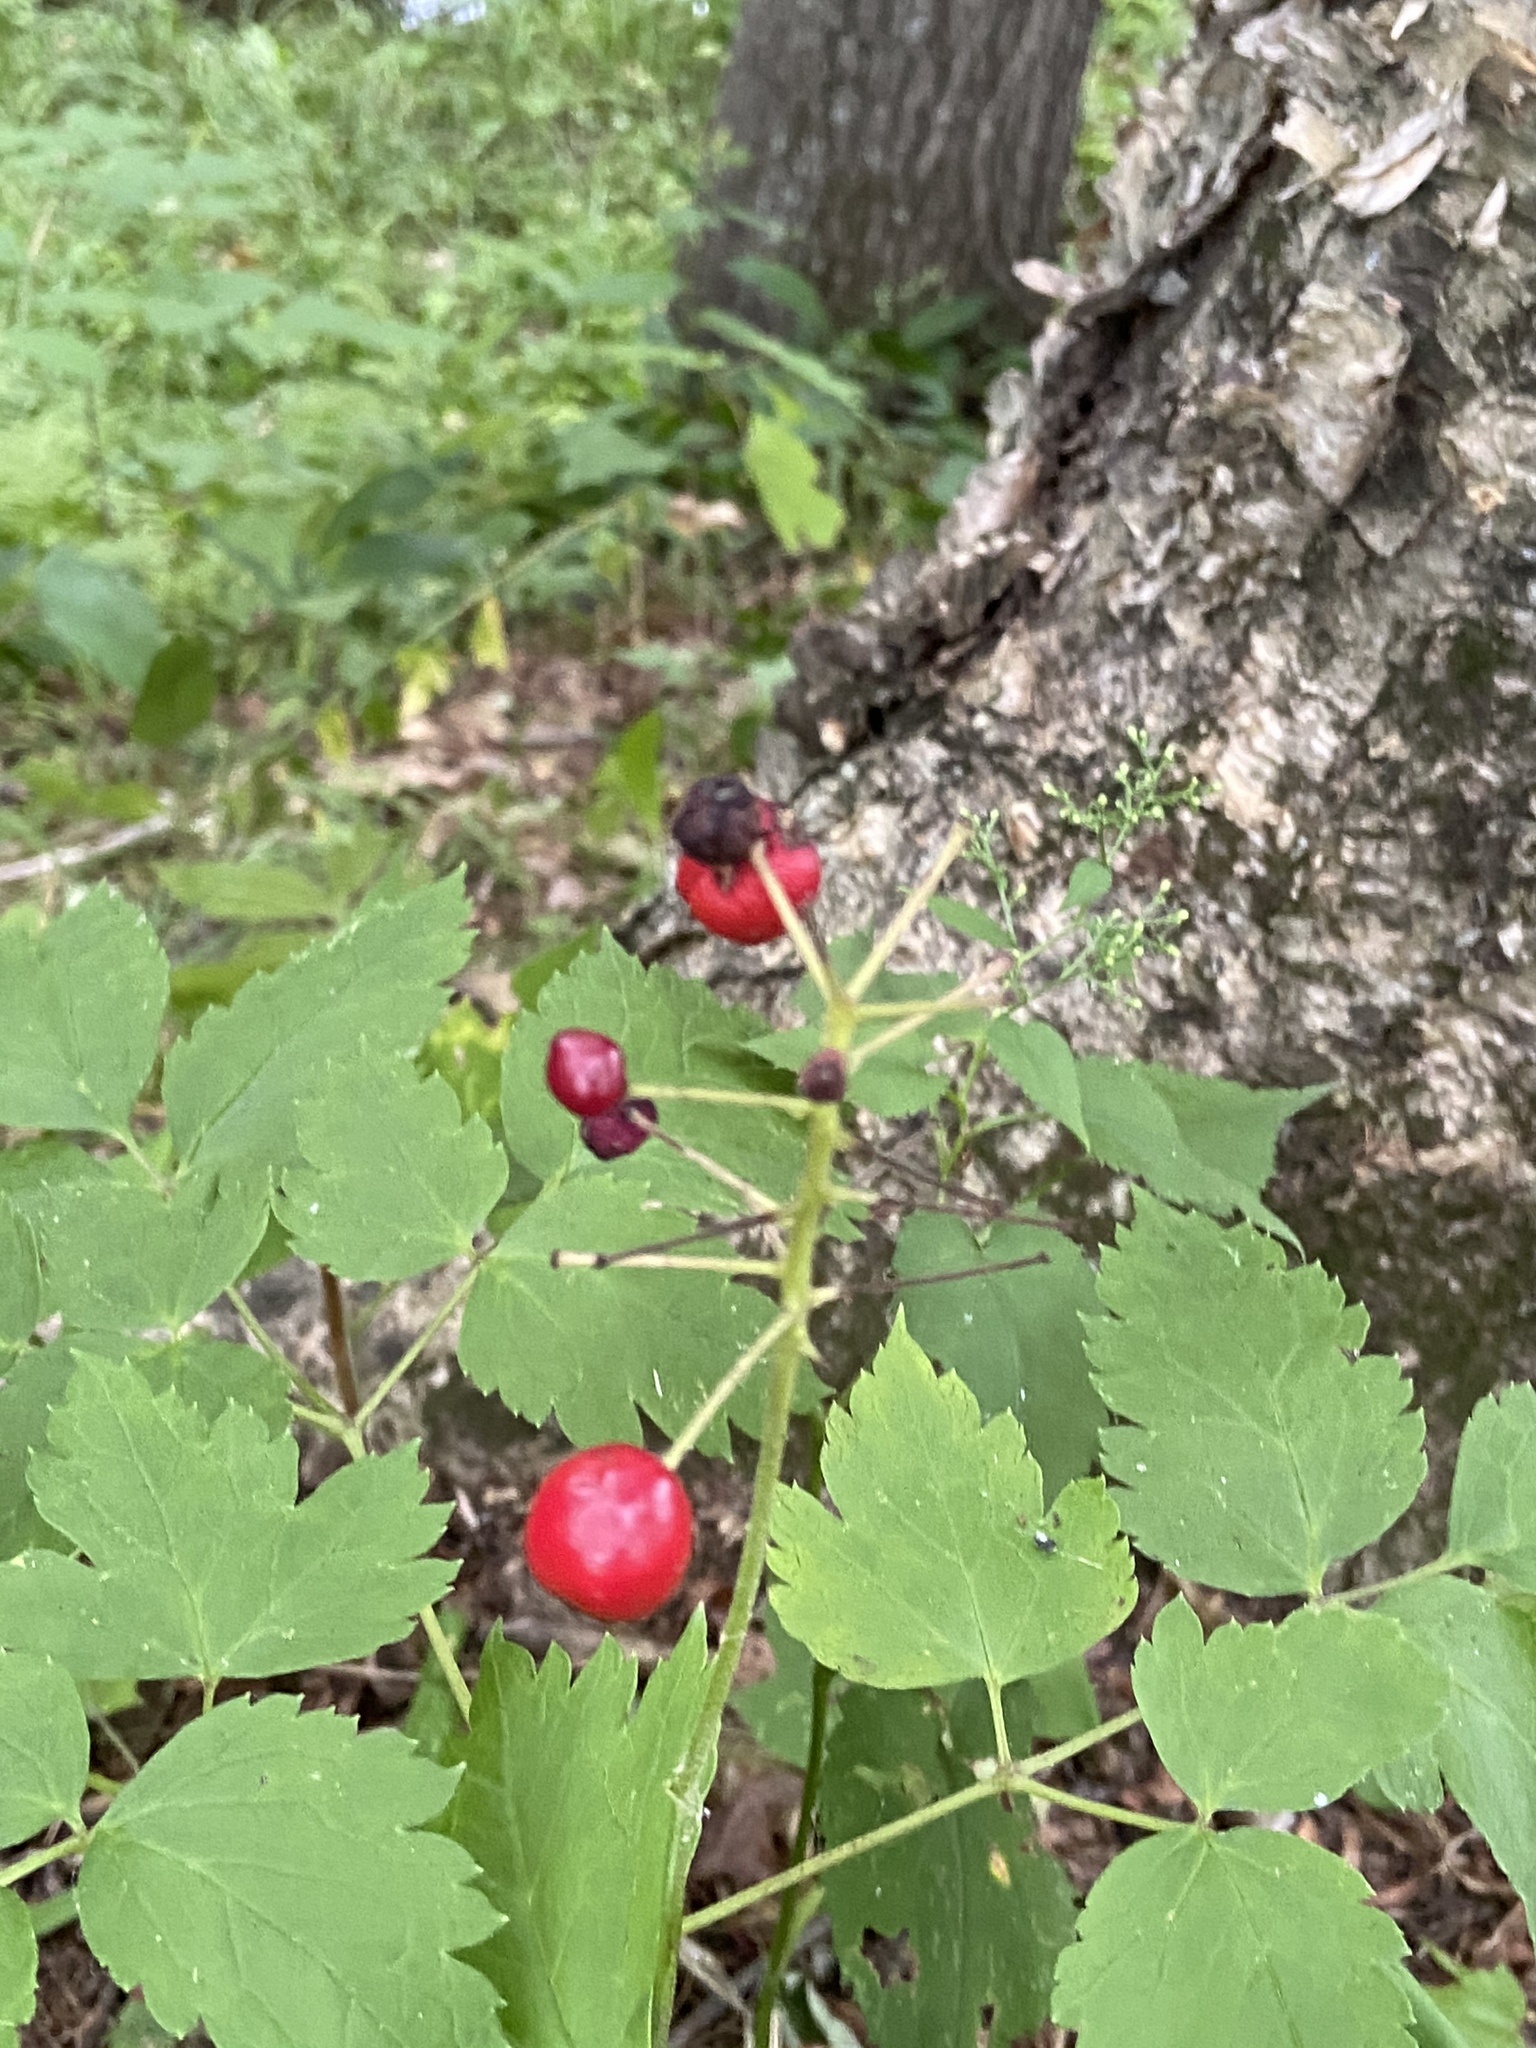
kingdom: Plantae
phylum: Tracheophyta
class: Magnoliopsida
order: Ranunculales
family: Ranunculaceae
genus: Actaea
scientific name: Actaea rubra
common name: Red baneberry
